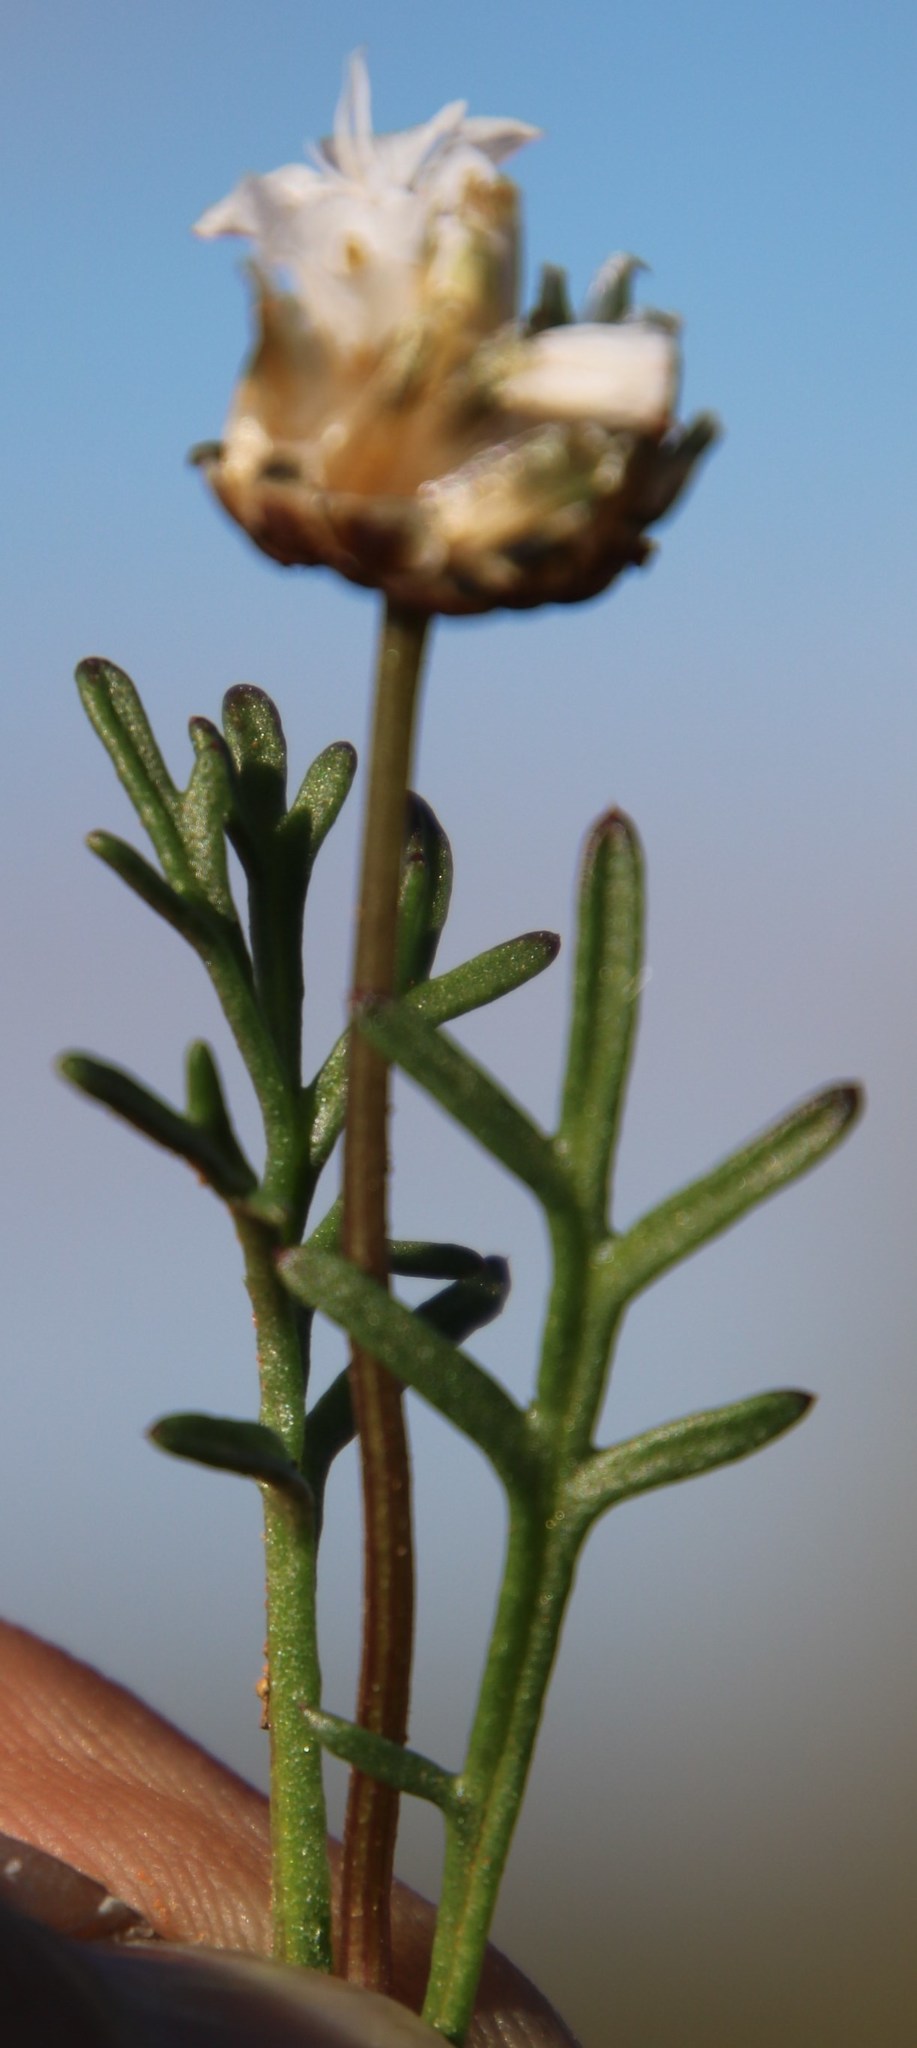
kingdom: Plantae
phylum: Tracheophyta
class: Magnoliopsida
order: Asterales
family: Asteraceae
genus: Ursinia
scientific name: Ursinia nana
